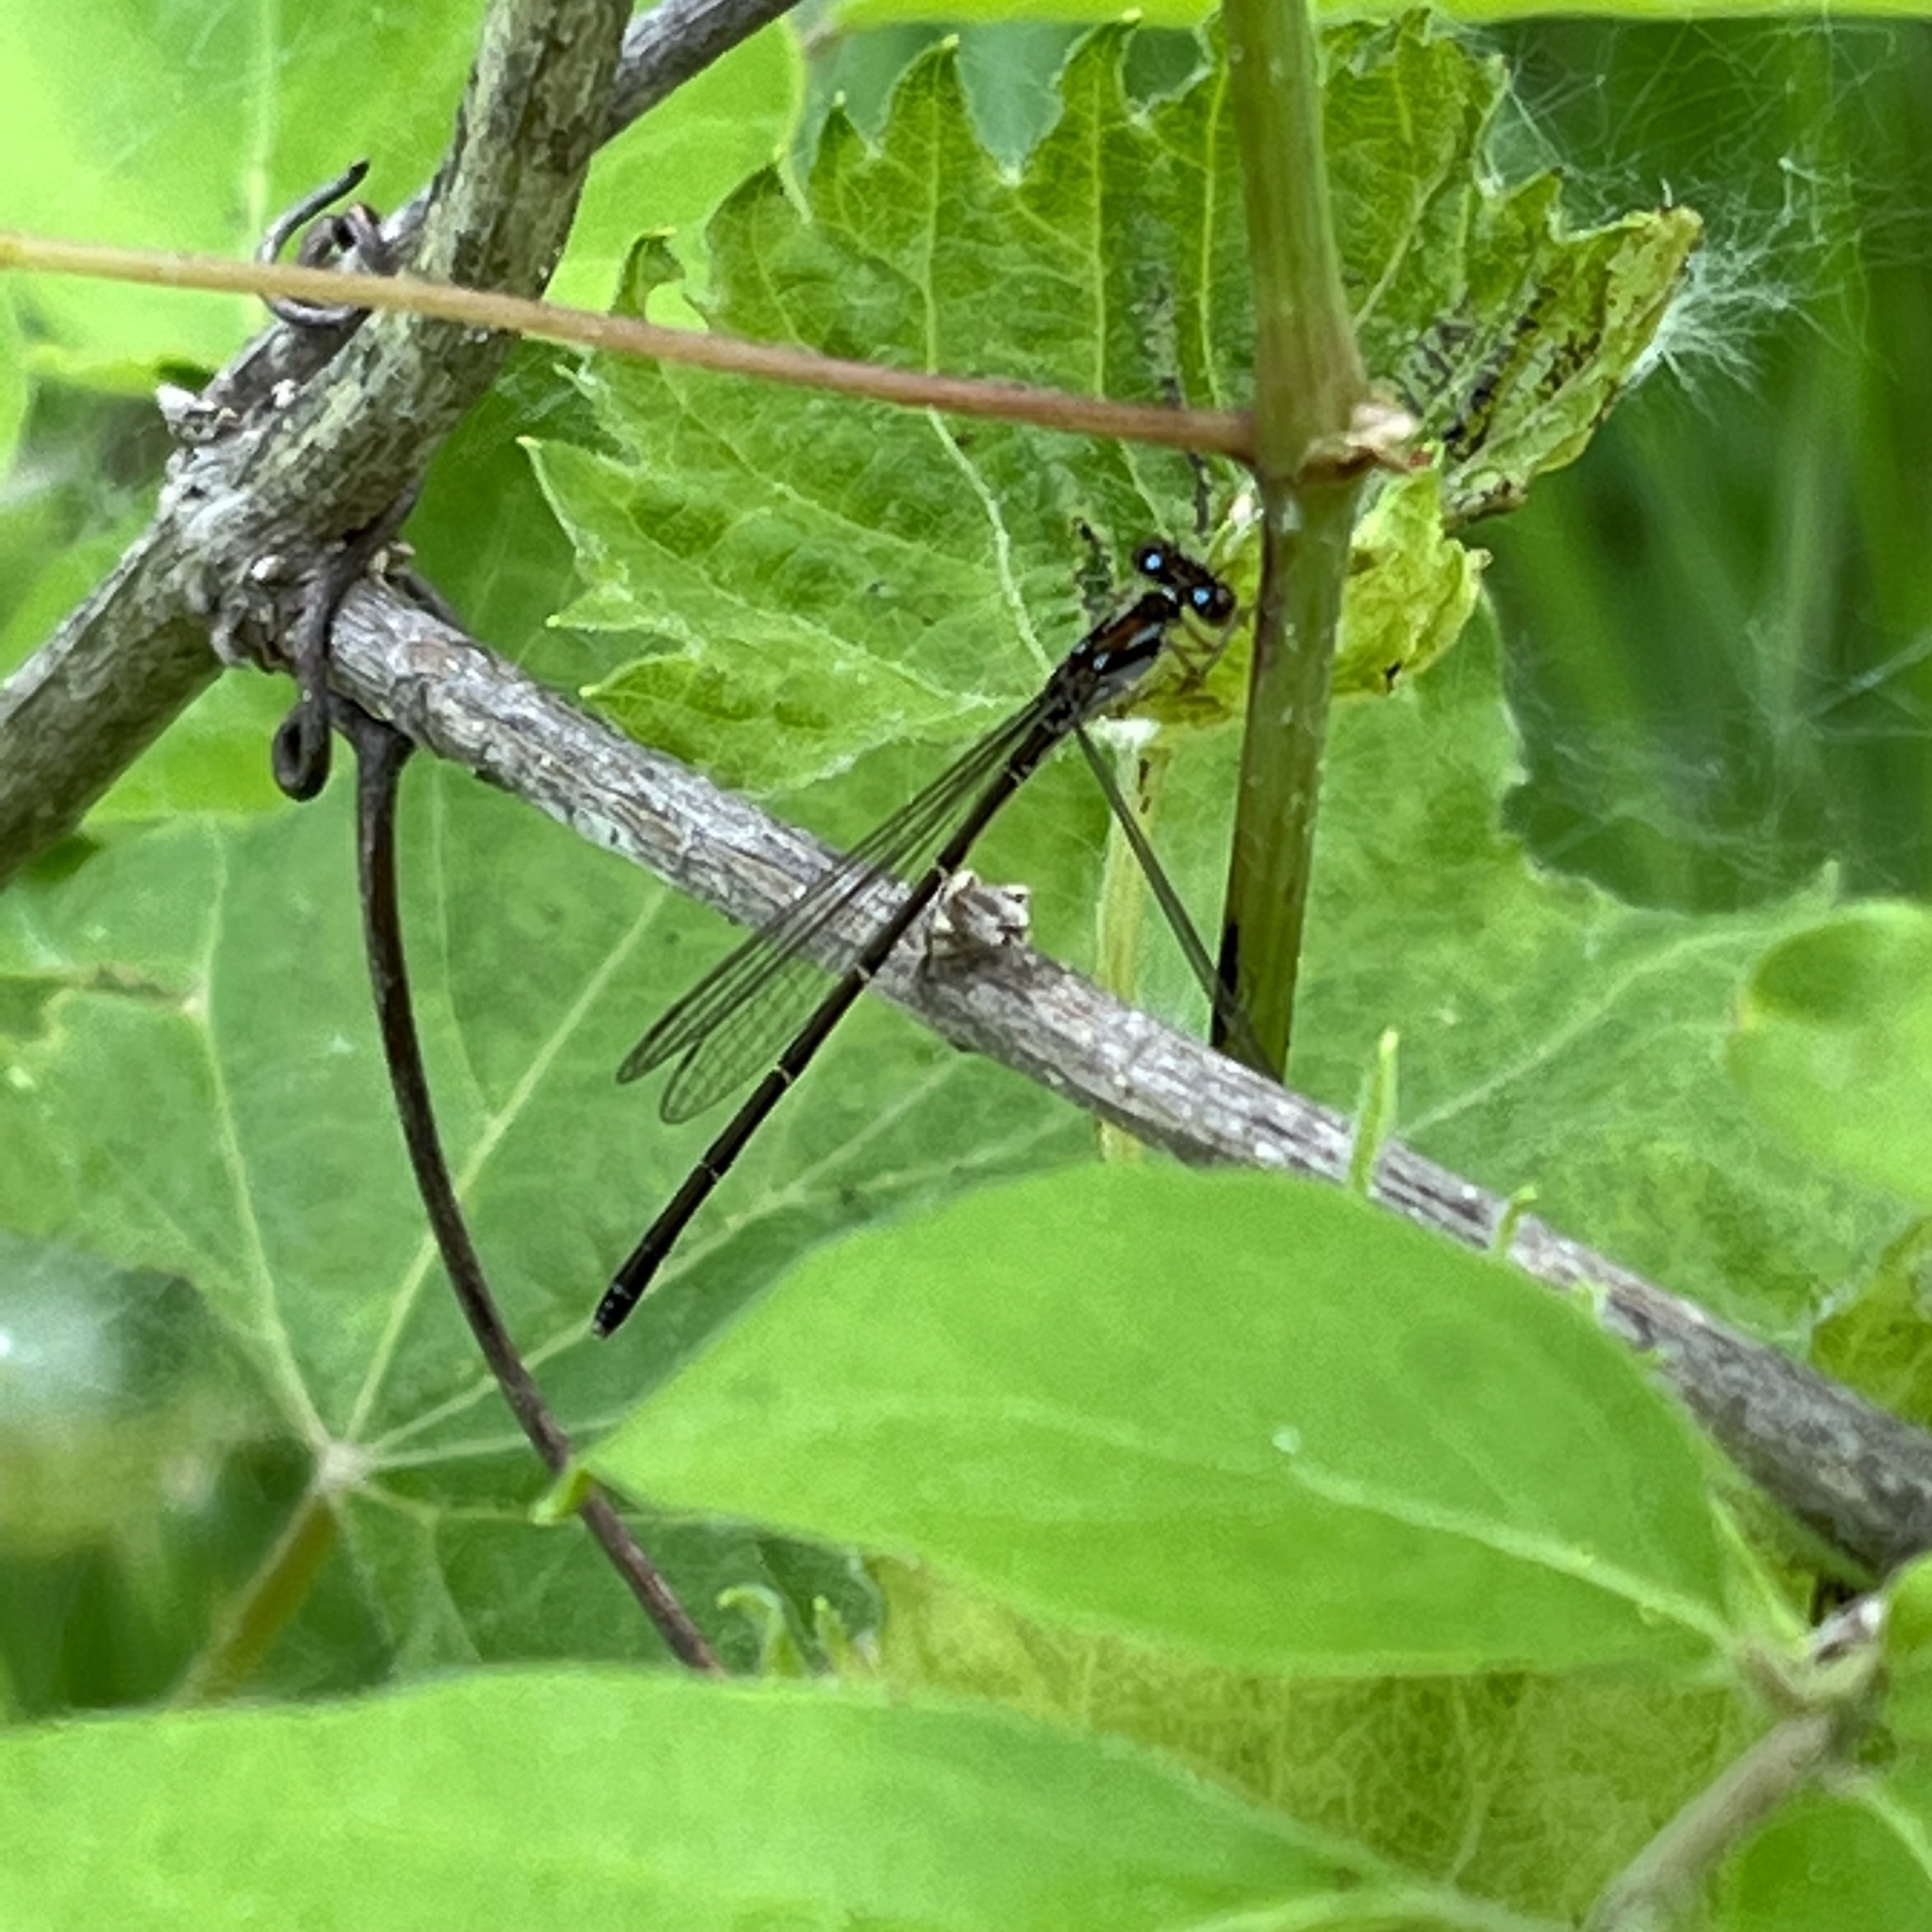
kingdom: Animalia
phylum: Arthropoda
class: Insecta
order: Odonata
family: Coenagrionidae
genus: Ischnura
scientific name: Ischnura posita
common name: Fragile forktail
